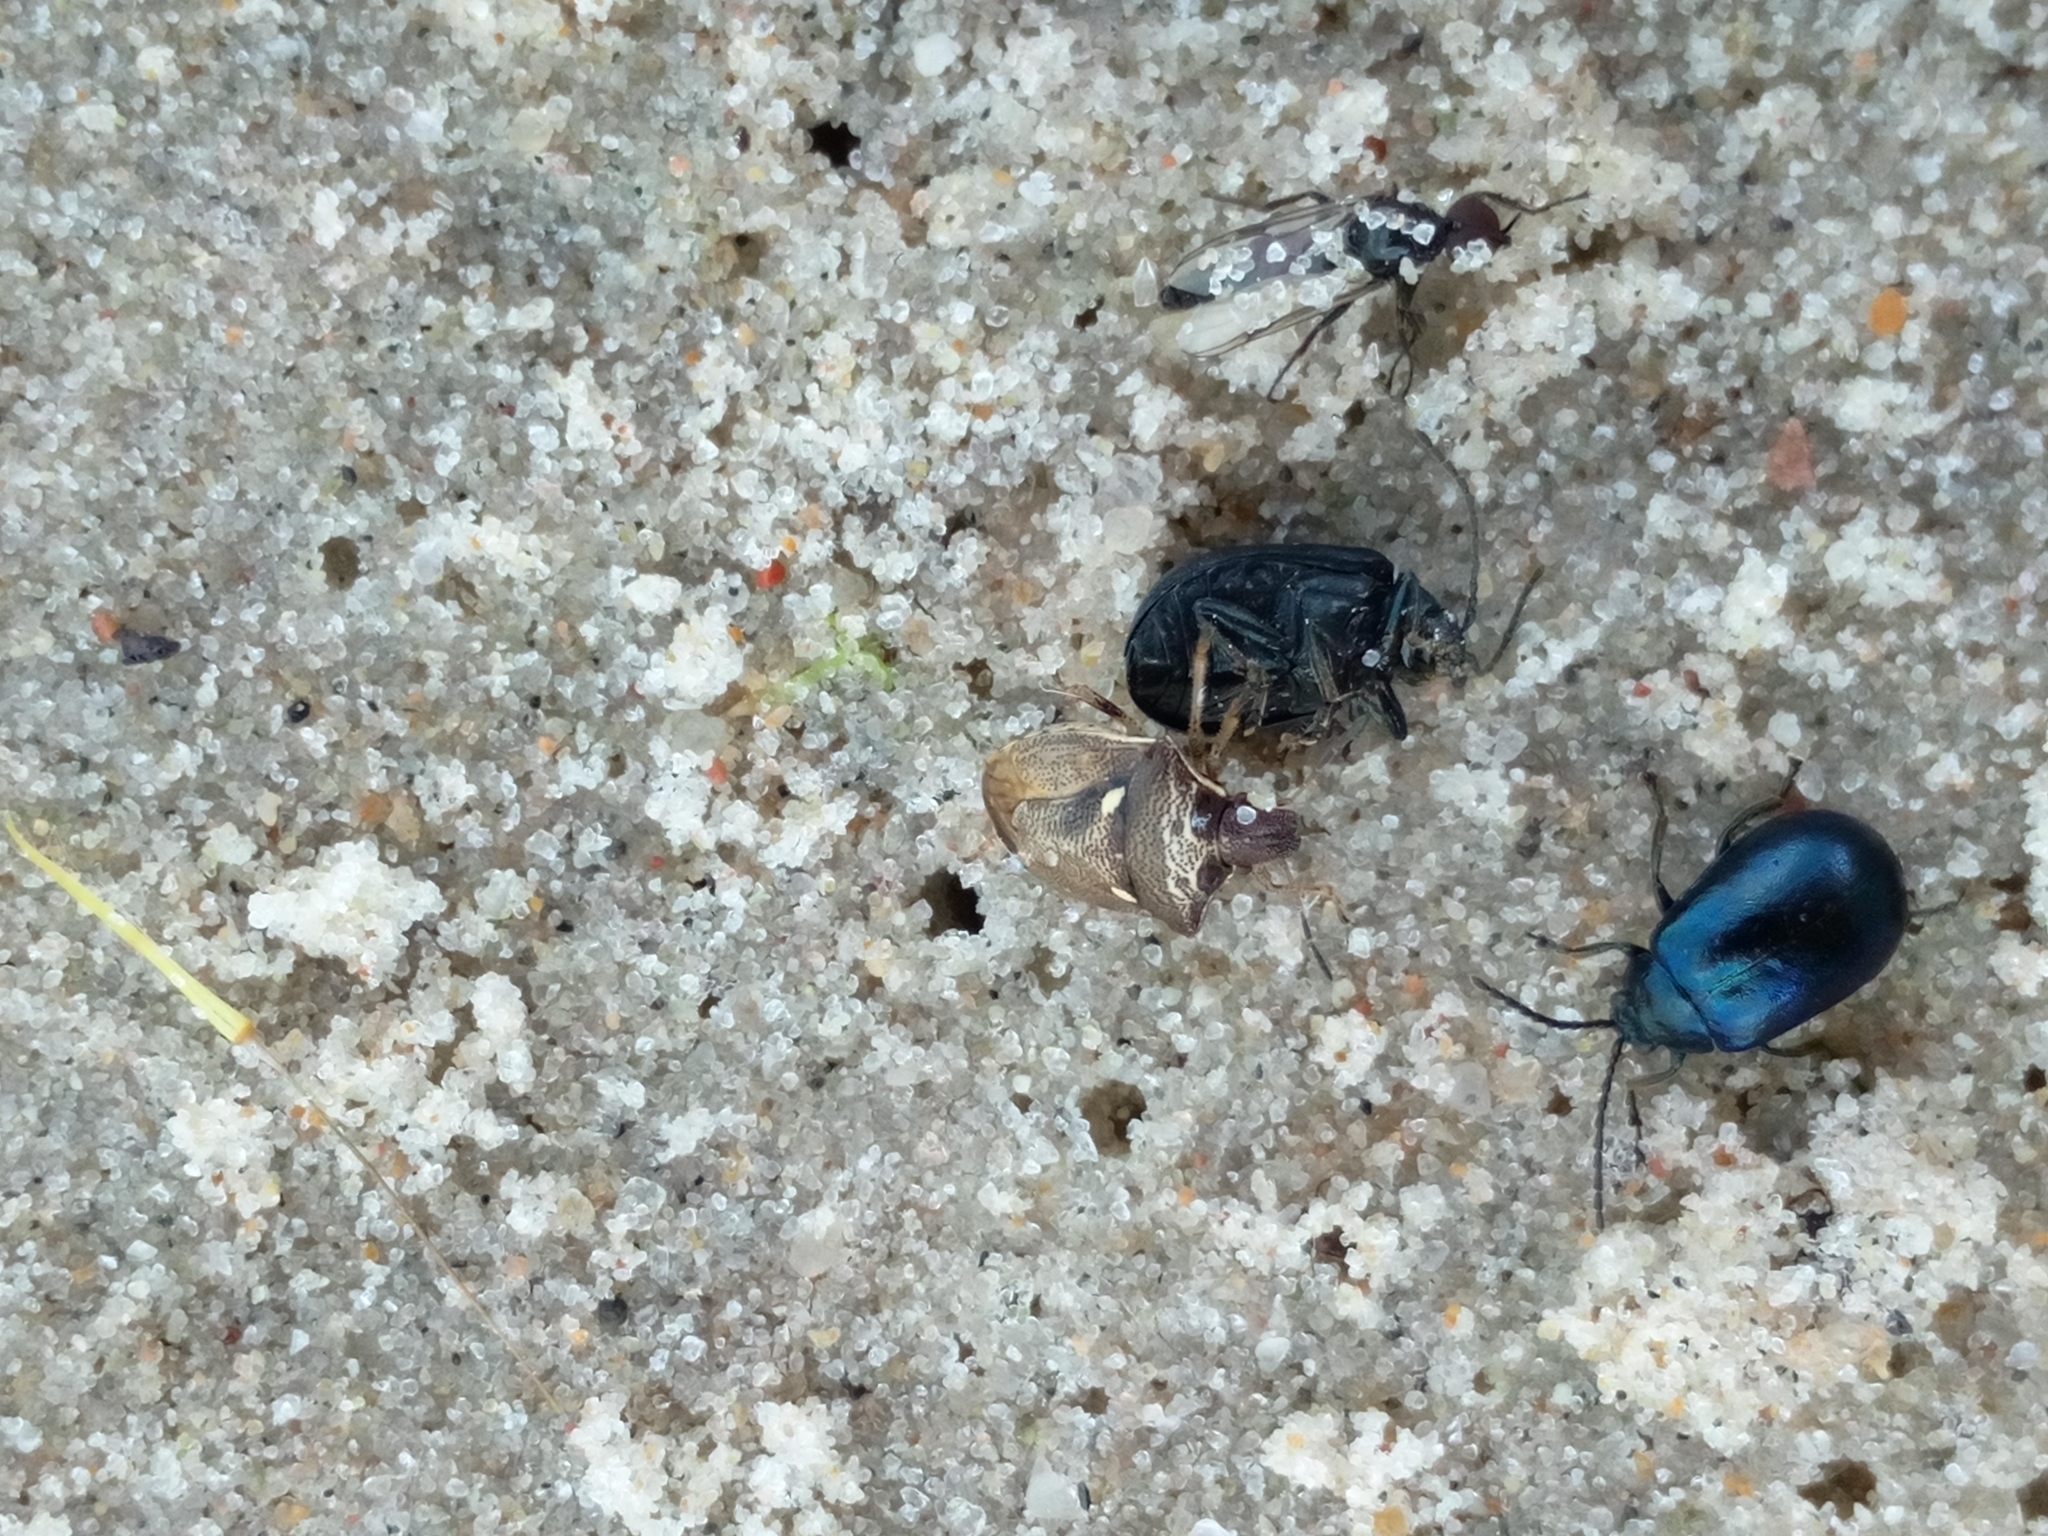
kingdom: Animalia
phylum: Arthropoda
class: Insecta
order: Hemiptera
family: Pentatomidae
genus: Eysarcoris
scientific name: Eysarcoris aeneus
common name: New forest shieldbug
